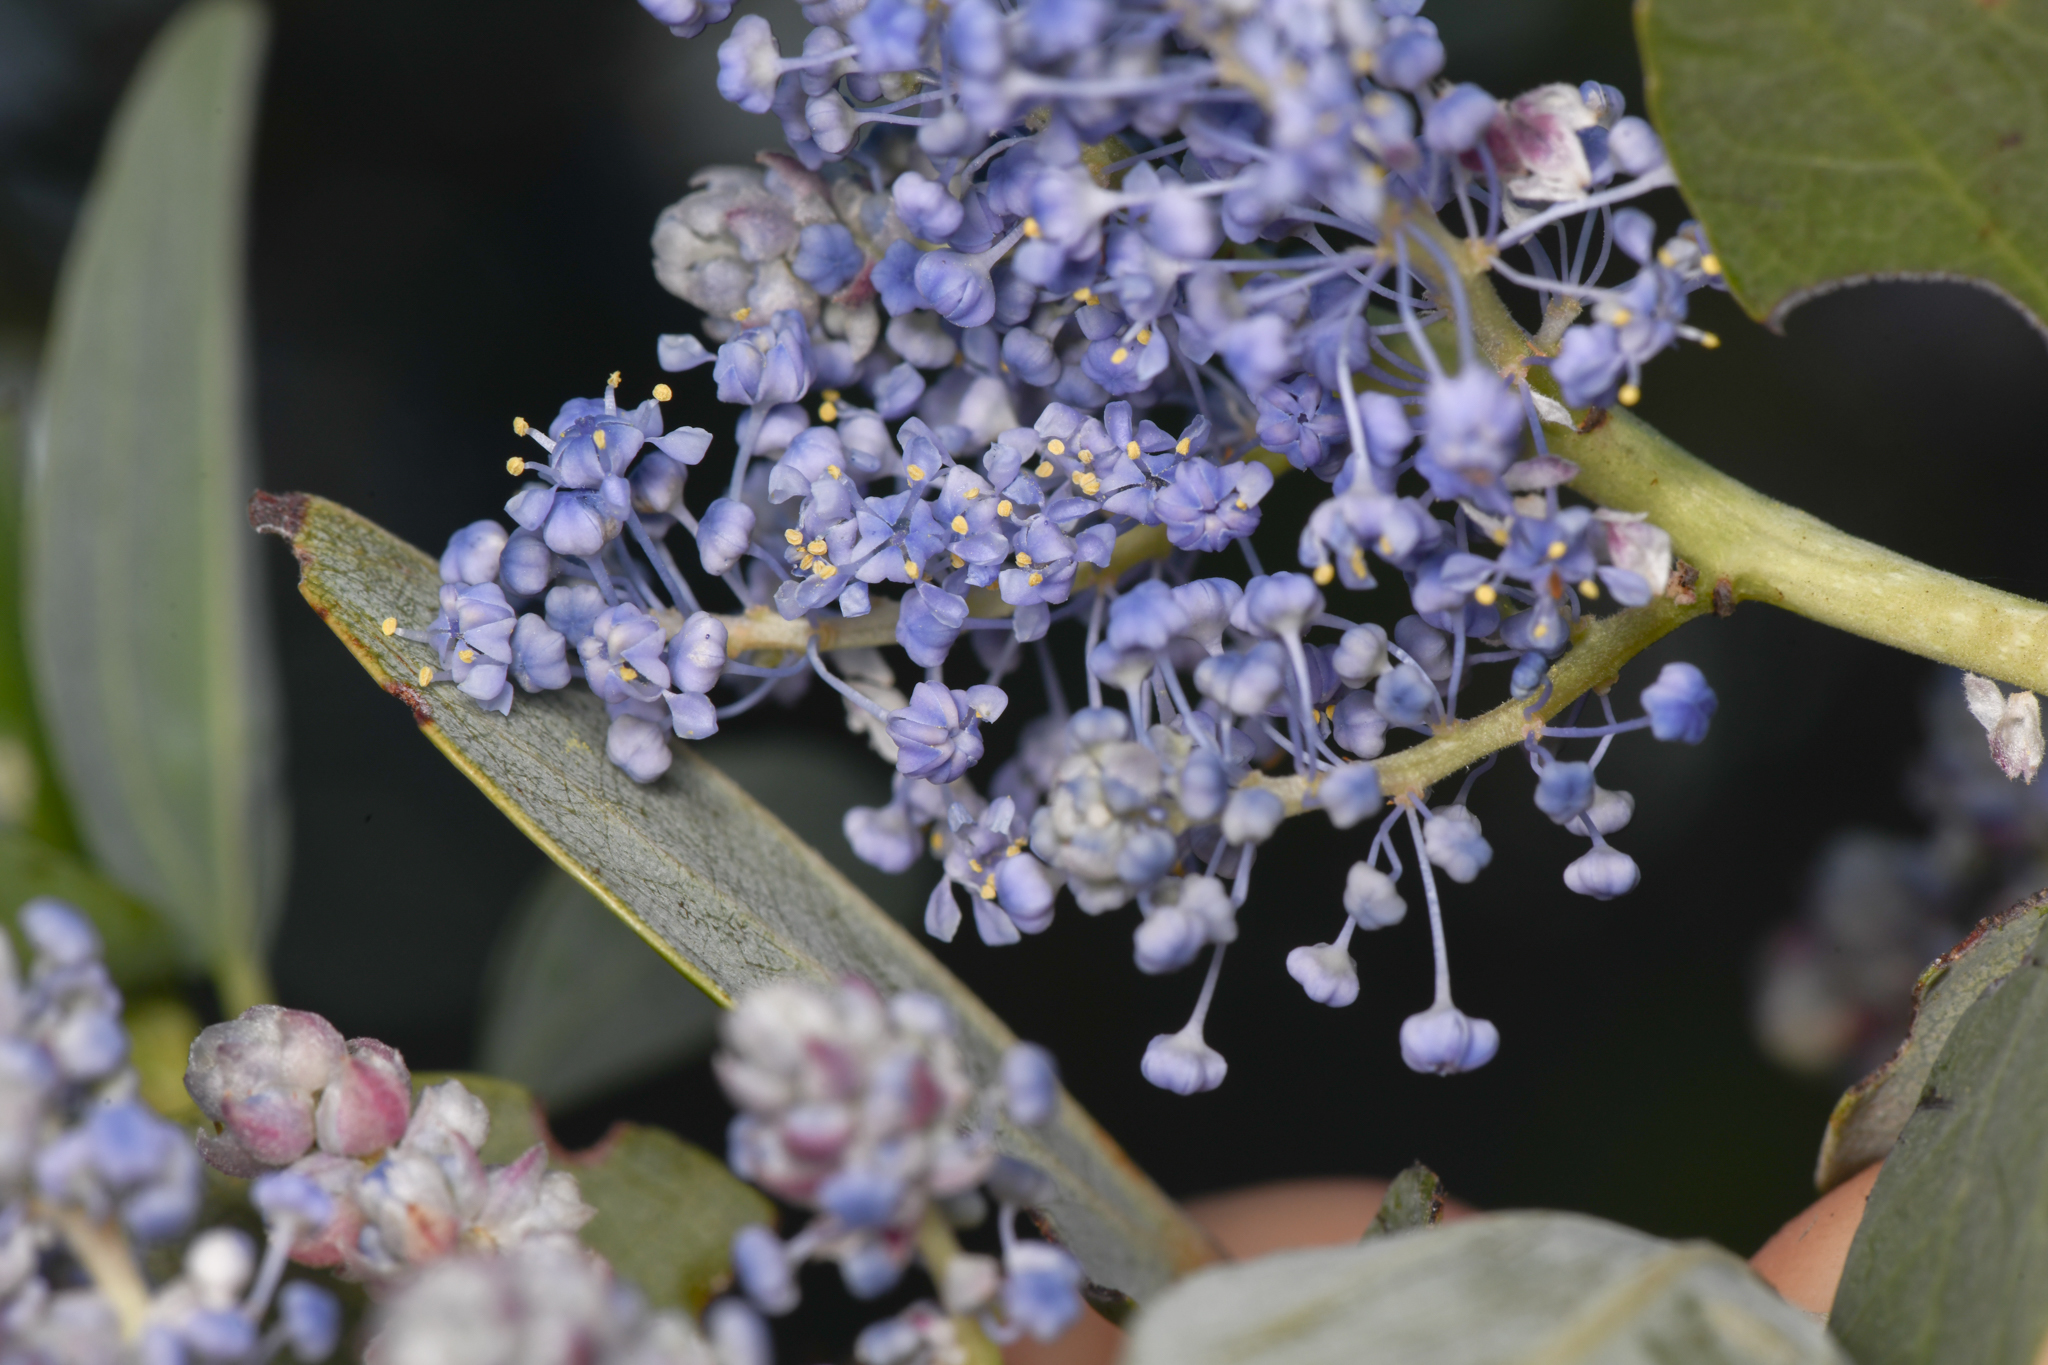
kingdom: Plantae
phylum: Tracheophyta
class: Magnoliopsida
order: Rosales
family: Rhamnaceae
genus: Ceanothus
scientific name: Ceanothus leucodermis
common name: Chaparral whitethorn
